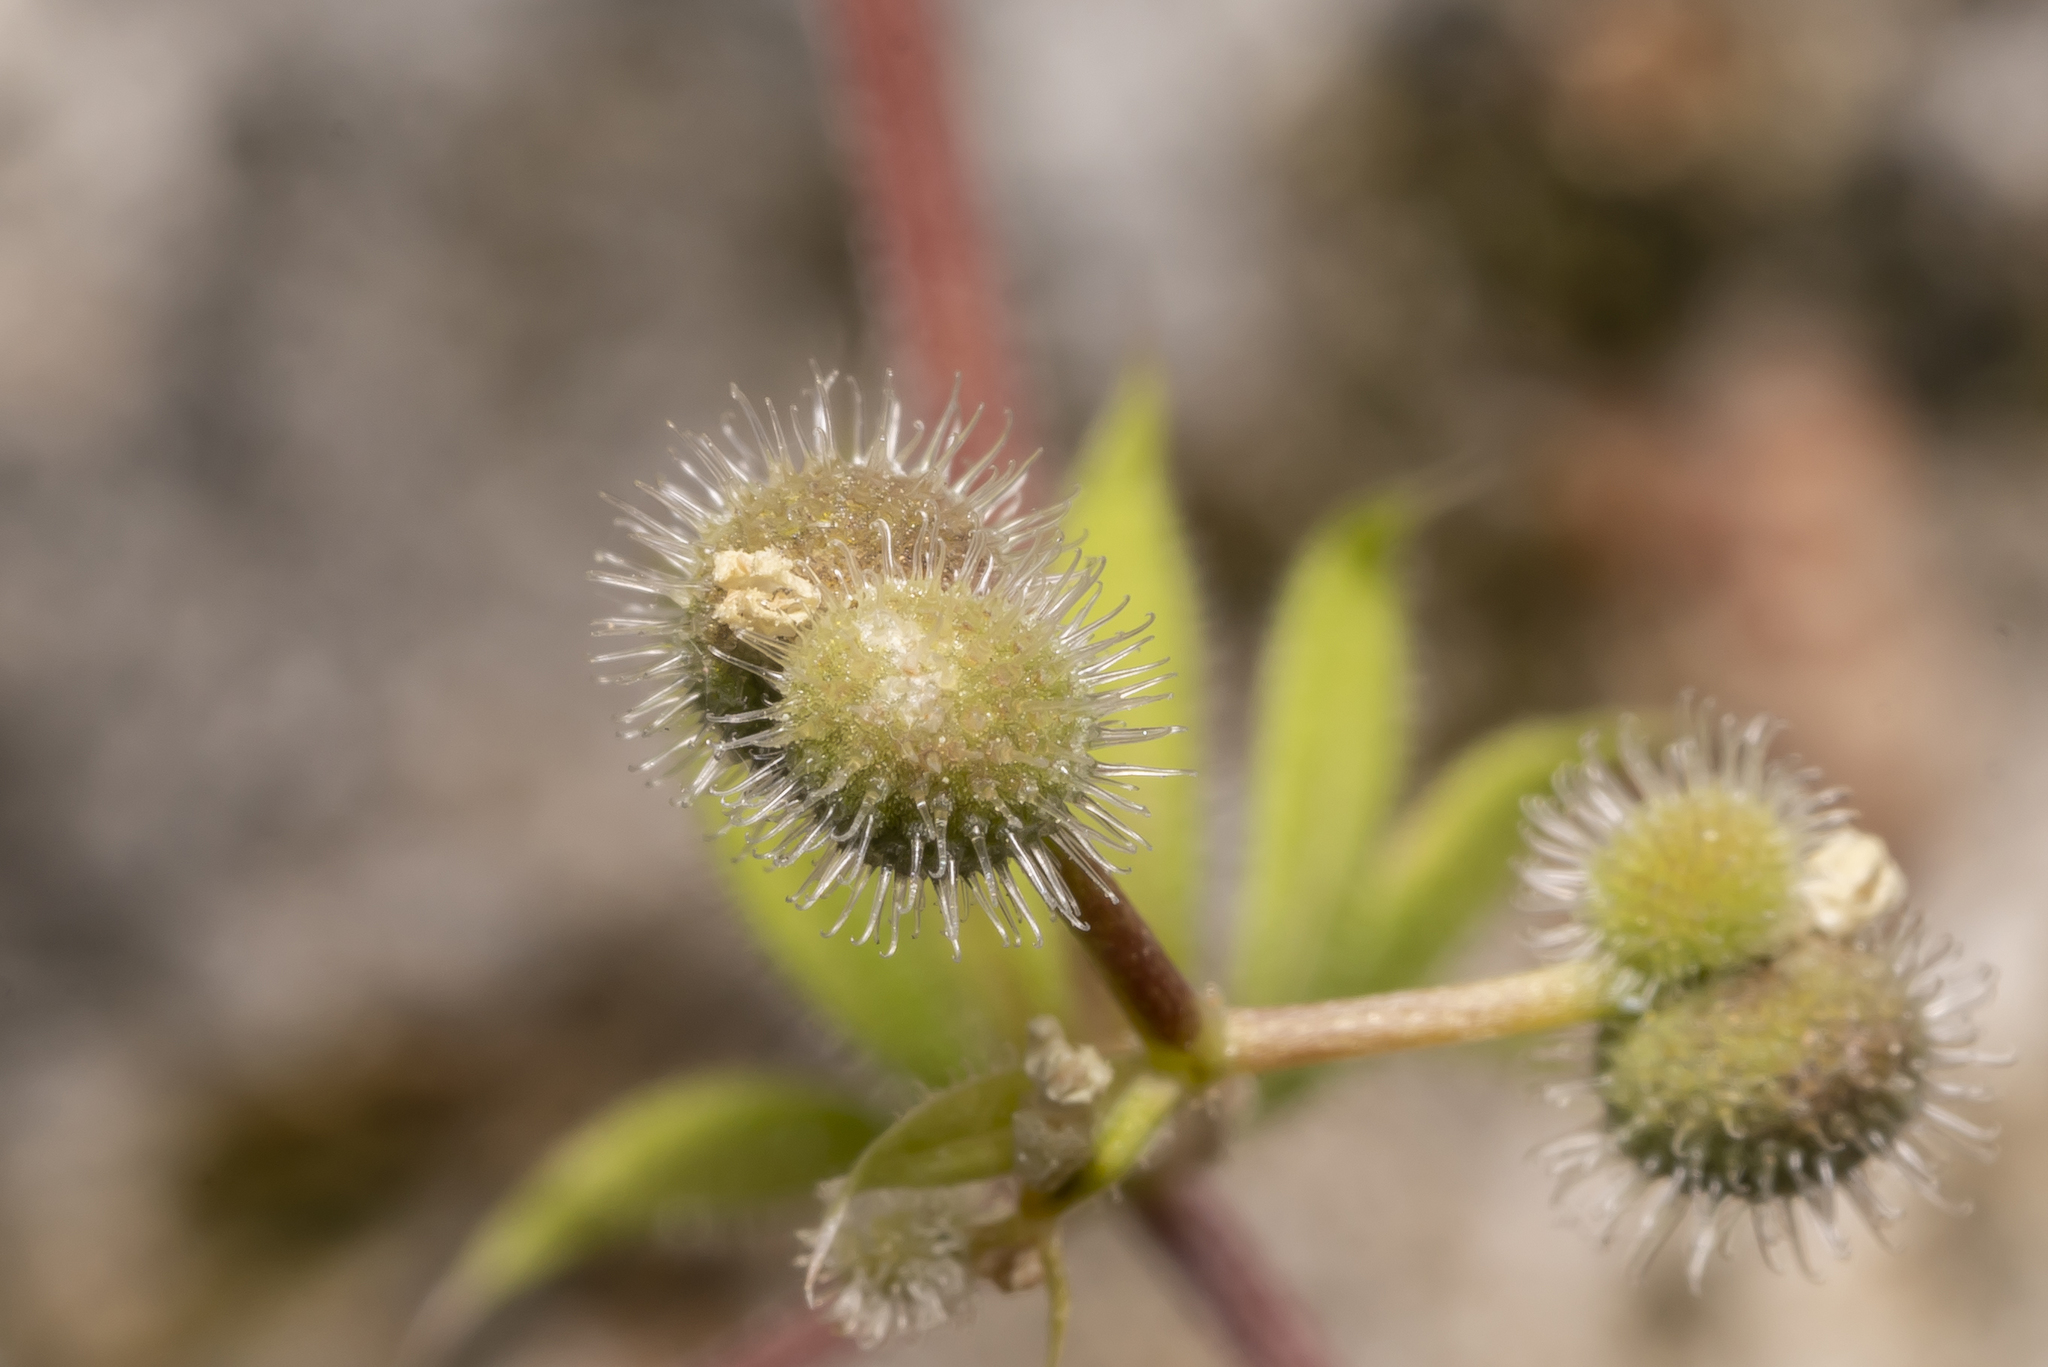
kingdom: Plantae
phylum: Tracheophyta
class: Magnoliopsida
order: Gentianales
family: Rubiaceae
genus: Galium
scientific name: Galium aparine
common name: Cleavers
